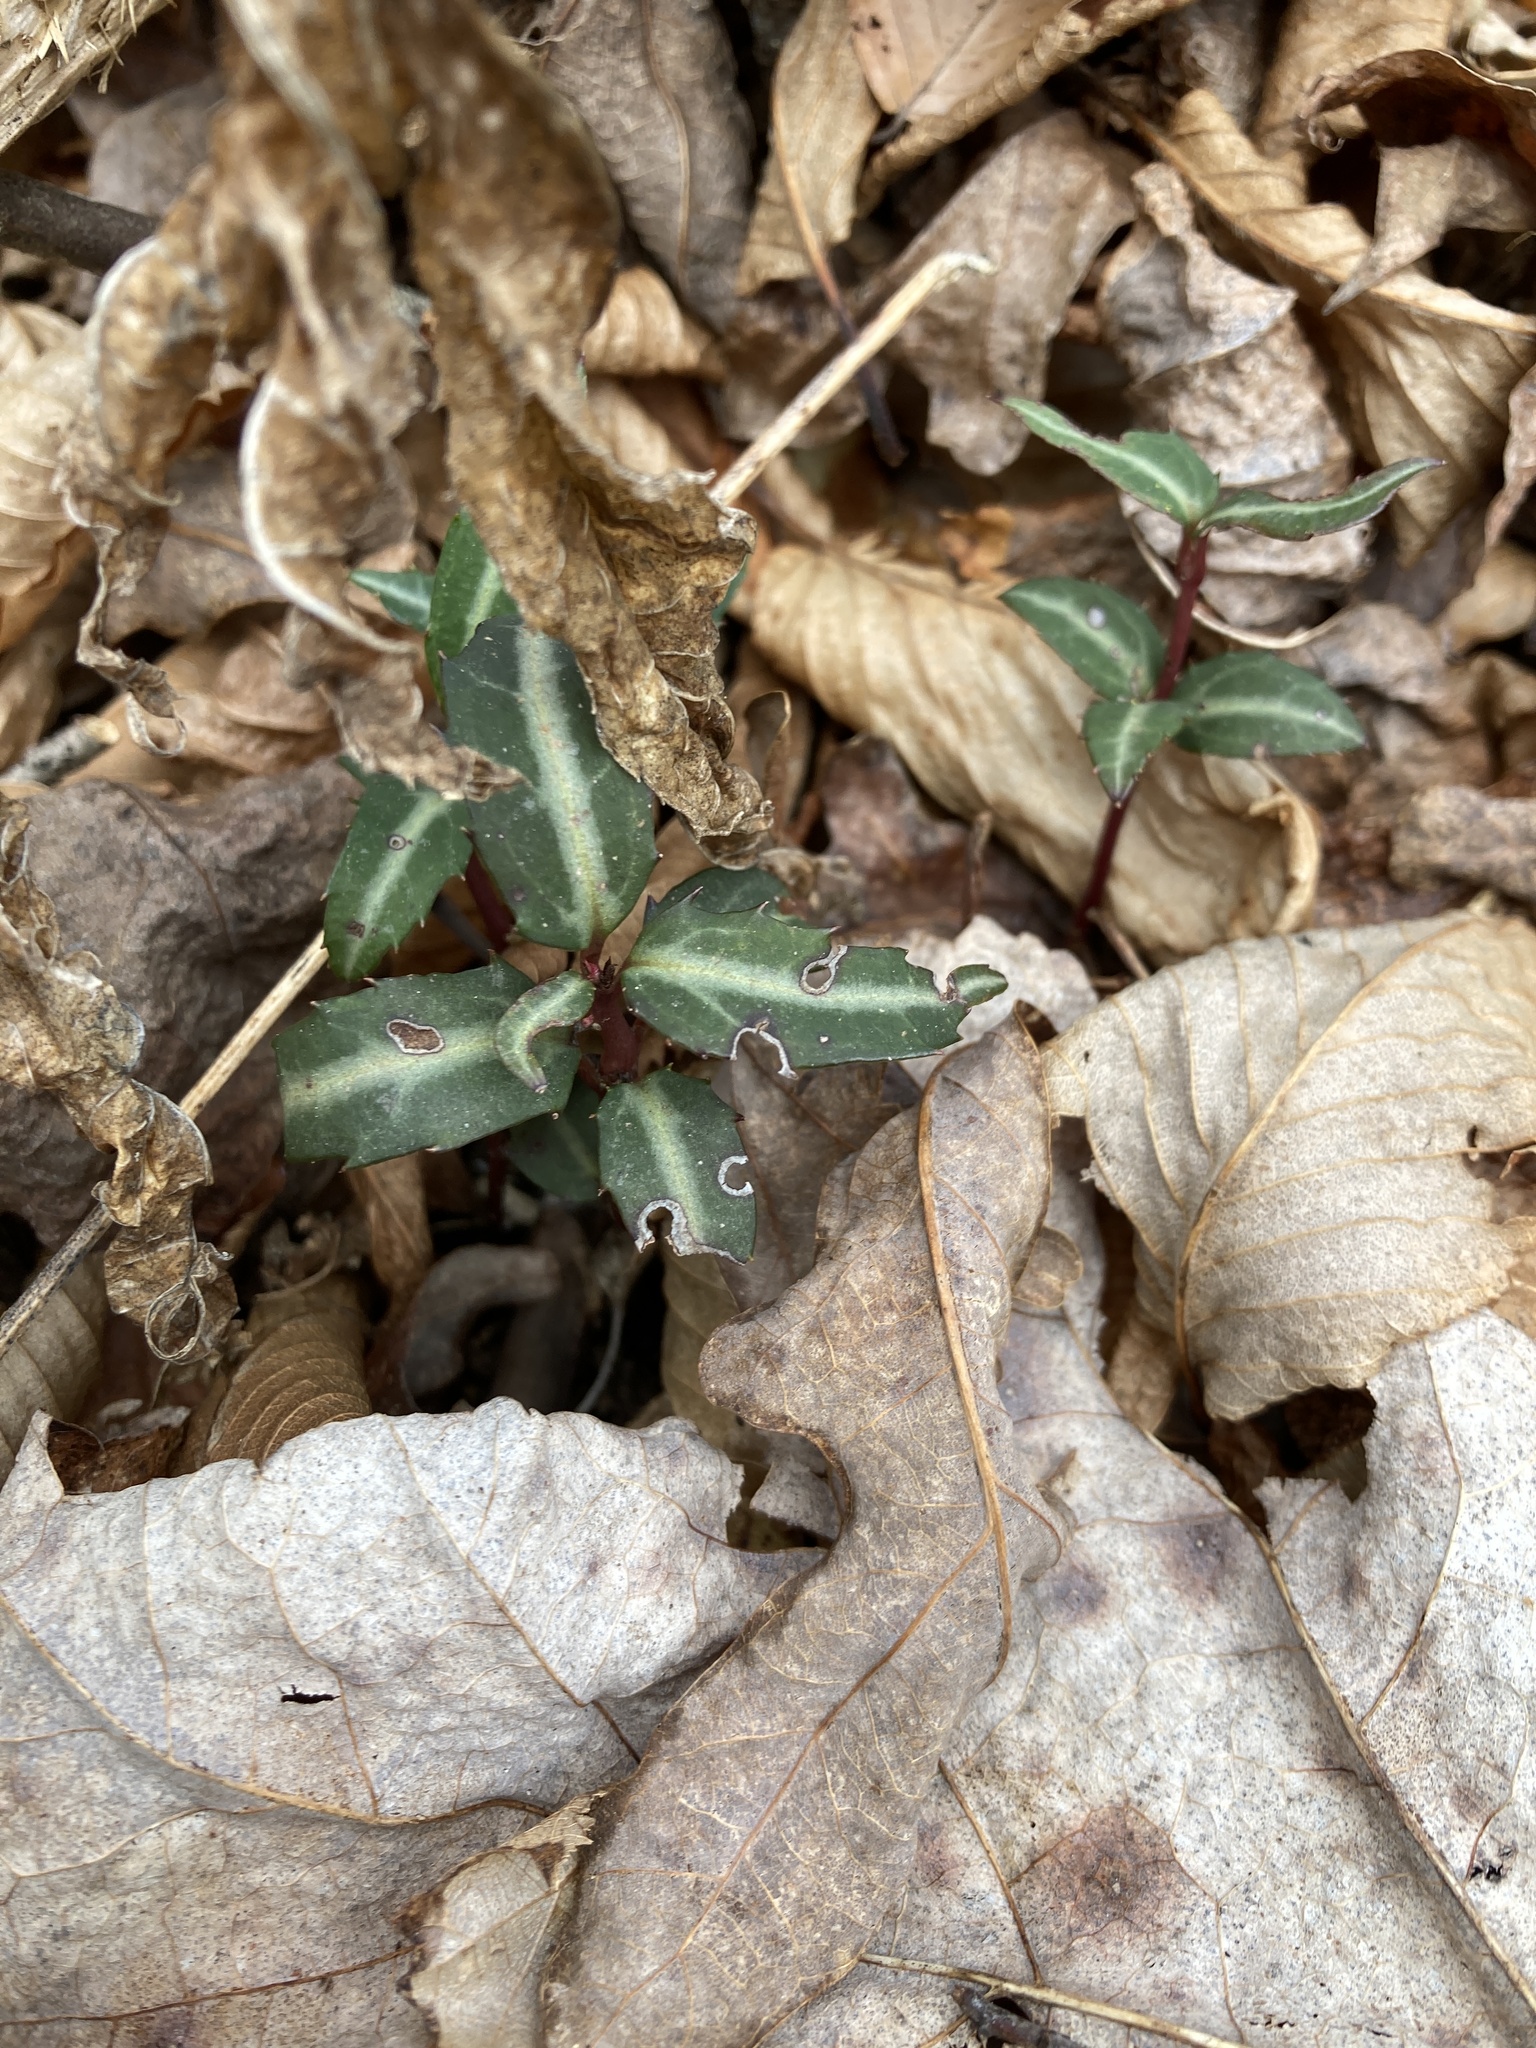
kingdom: Plantae
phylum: Tracheophyta
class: Magnoliopsida
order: Ericales
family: Ericaceae
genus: Chimaphila
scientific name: Chimaphila maculata
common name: Spotted pipsissewa
